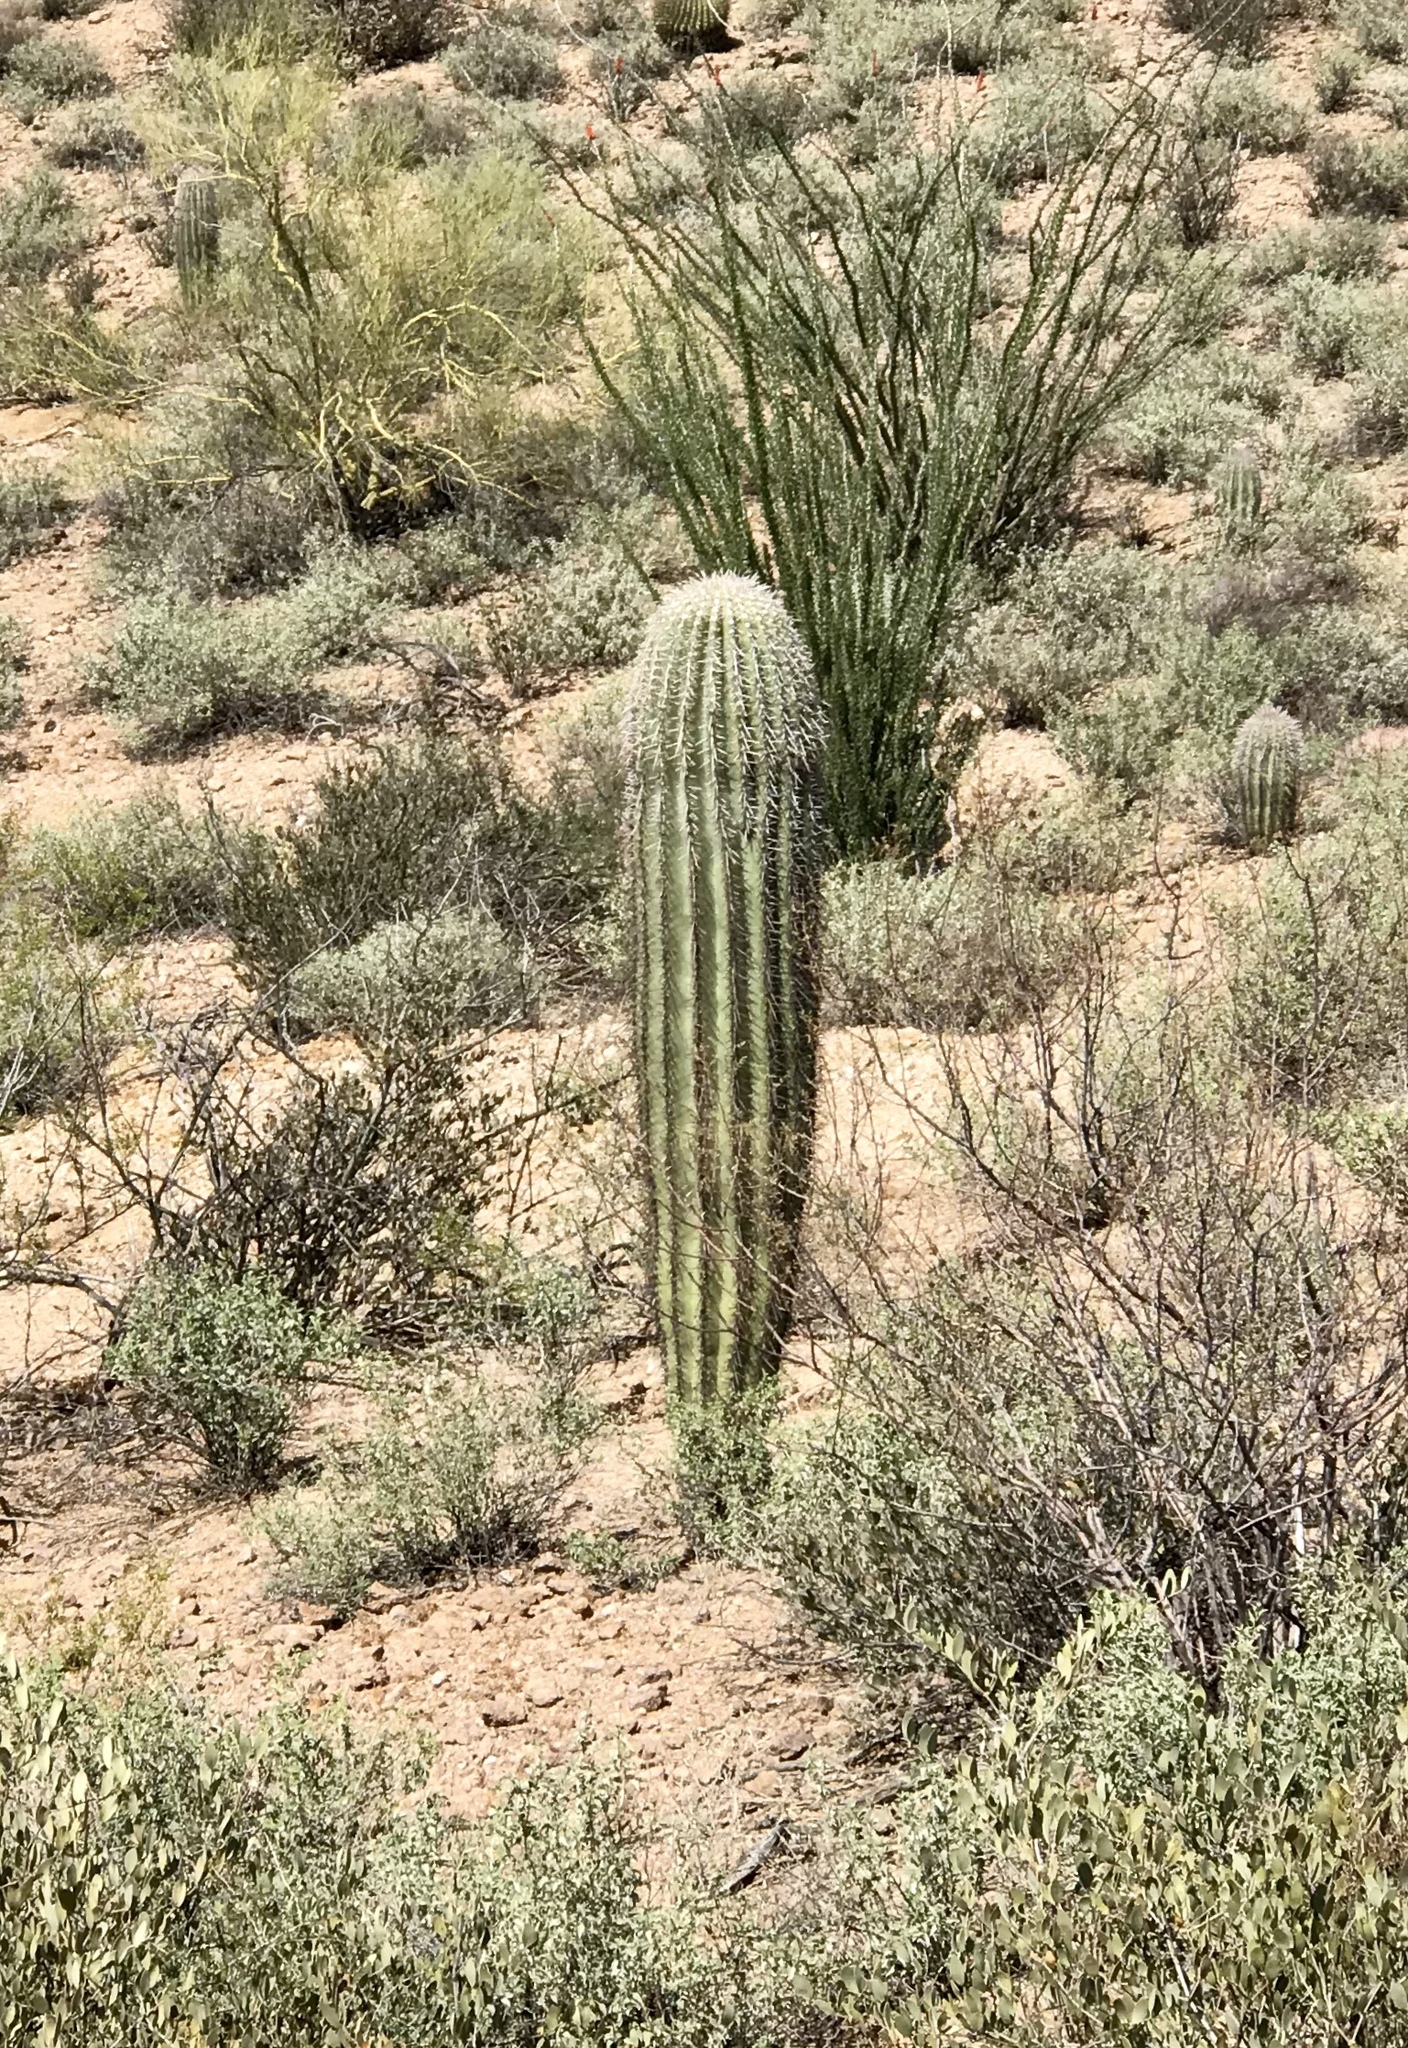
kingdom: Plantae
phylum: Tracheophyta
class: Magnoliopsida
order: Caryophyllales
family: Cactaceae
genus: Carnegiea
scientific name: Carnegiea gigantea
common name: Saguaro
